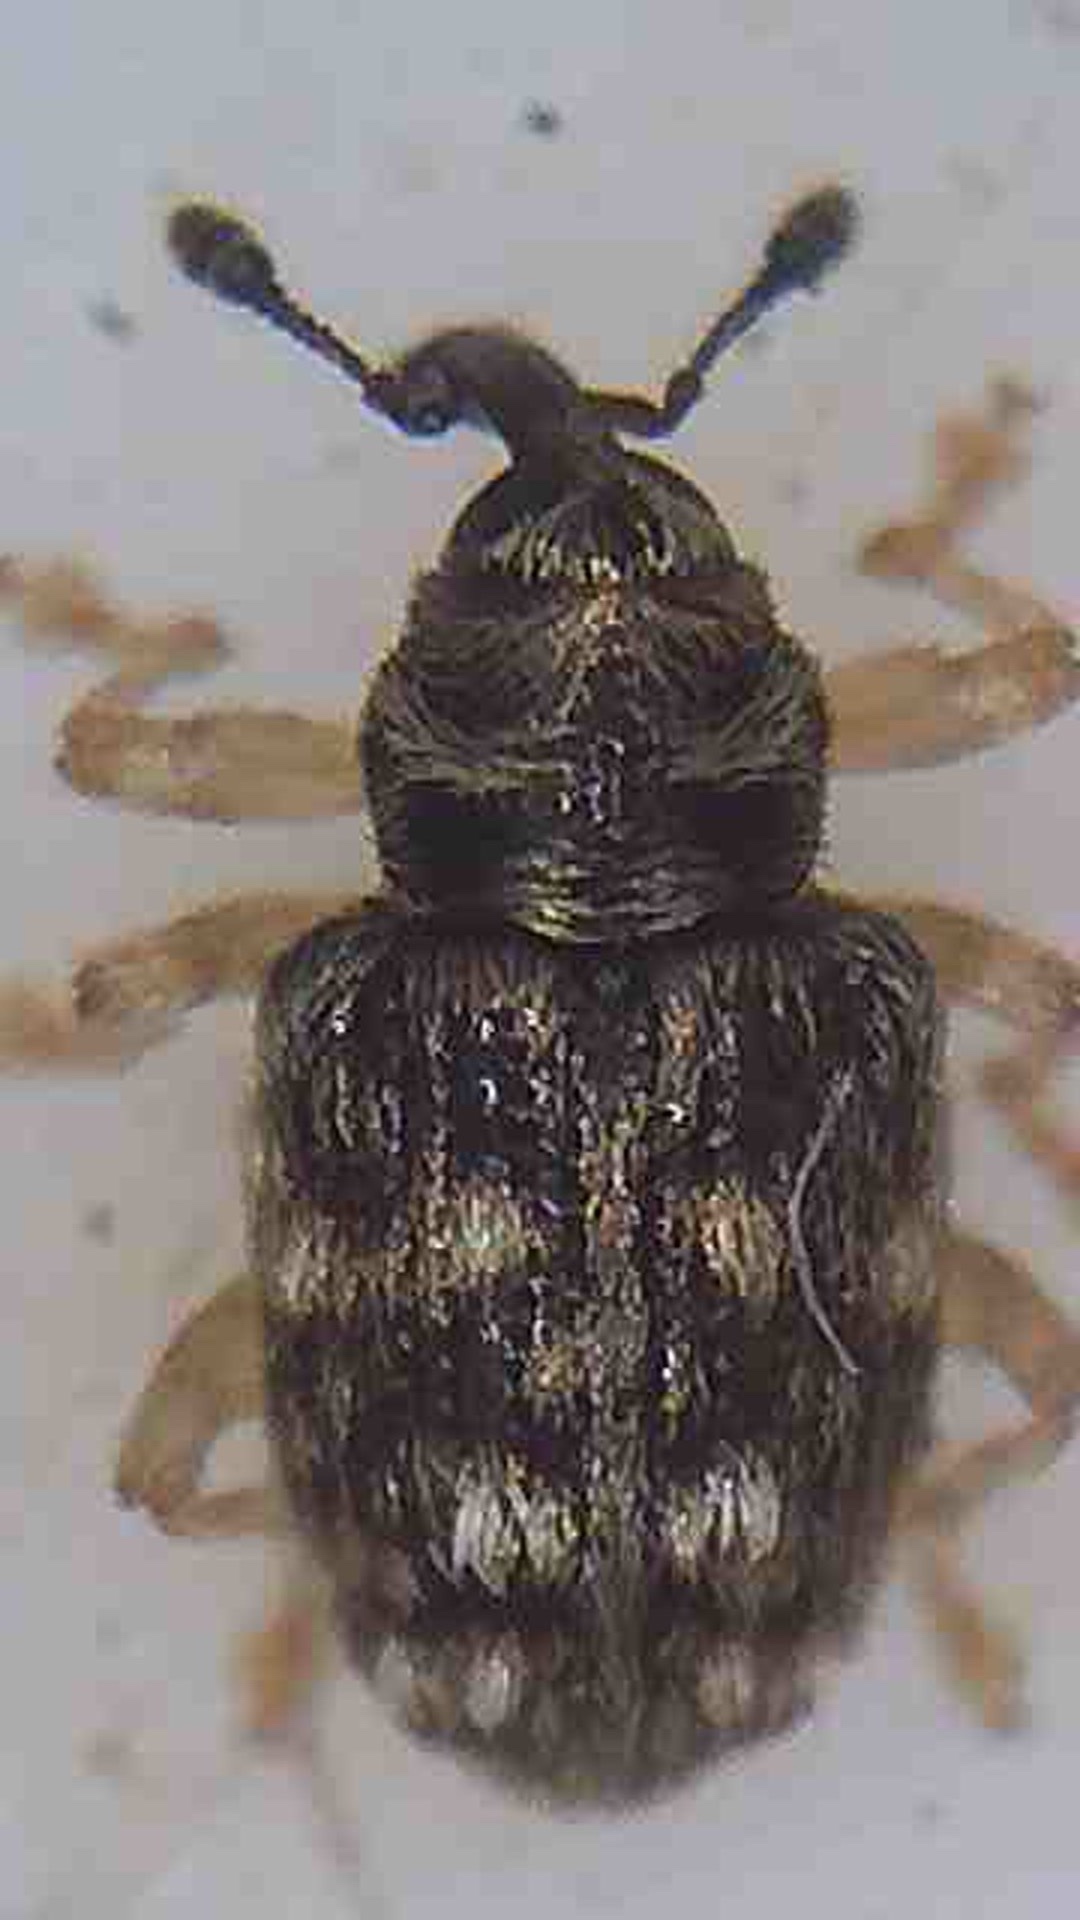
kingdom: Animalia
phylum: Arthropoda
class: Insecta
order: Coleoptera
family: Curculionidae
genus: Praolepra
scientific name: Praolepra albopicta
